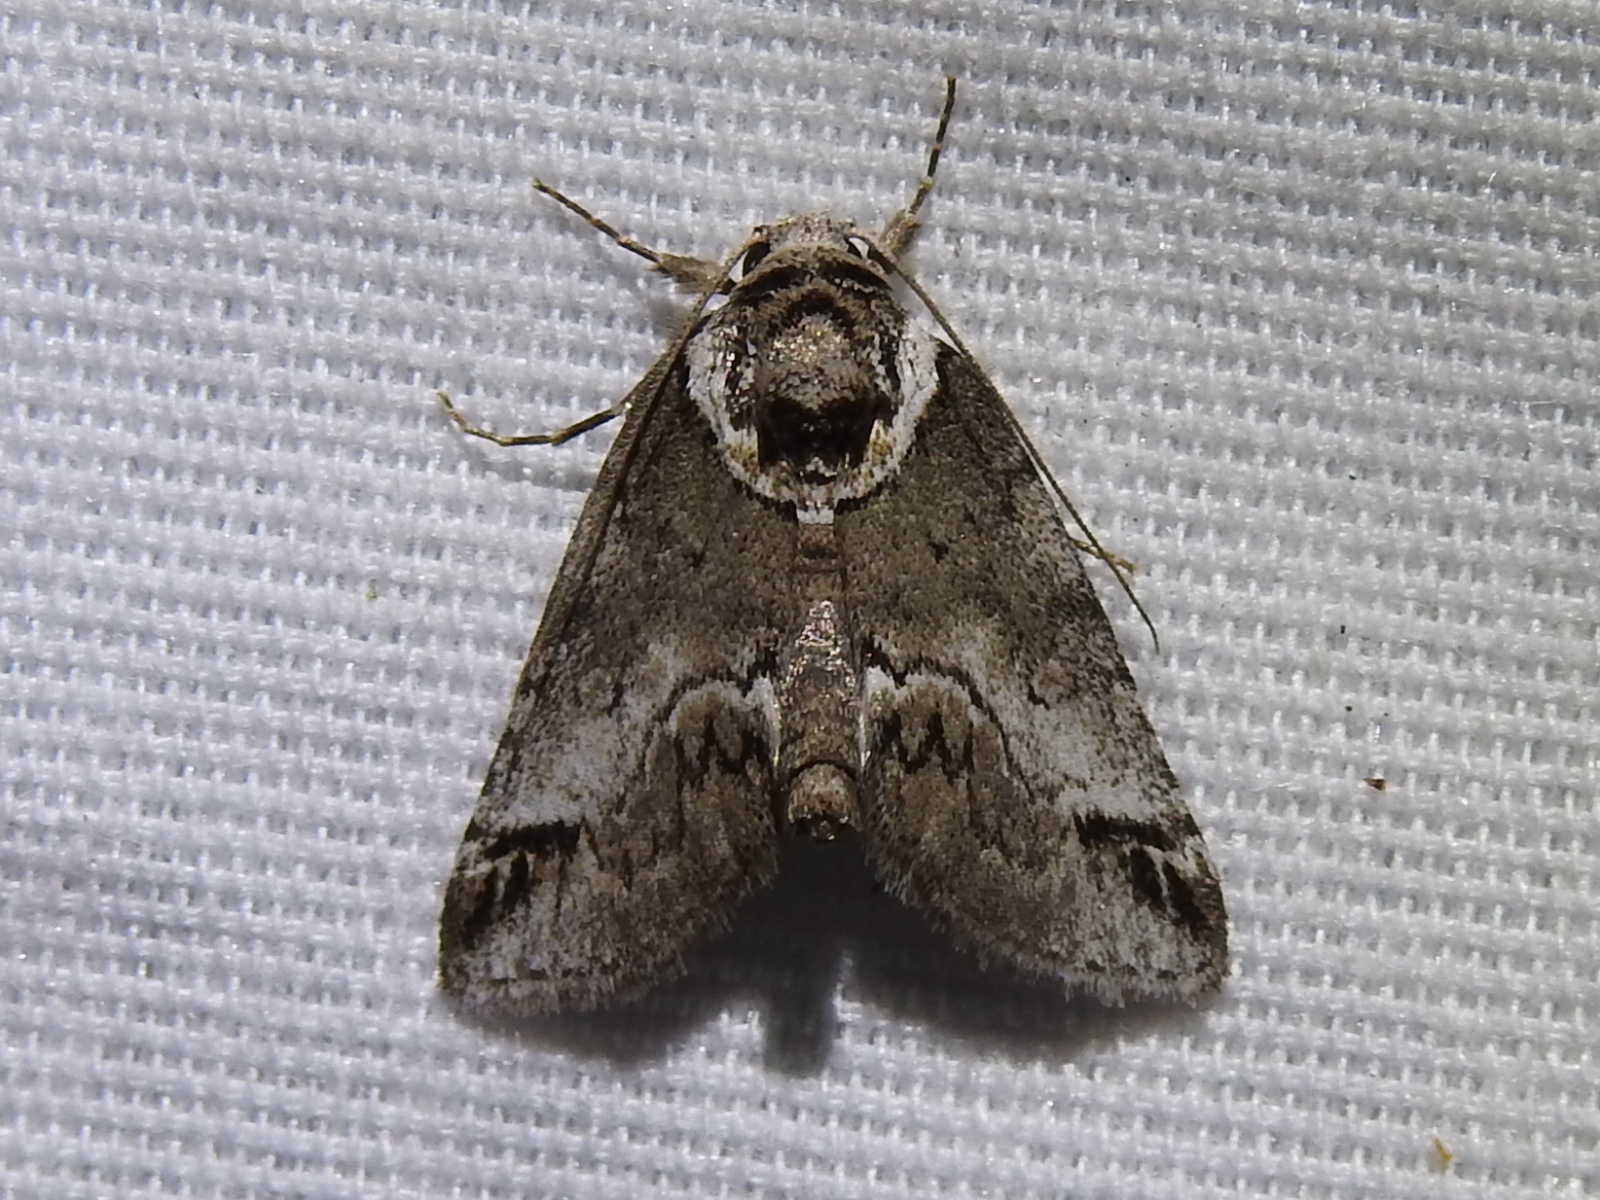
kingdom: Animalia
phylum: Arthropoda
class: Insecta
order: Lepidoptera
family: Nolidae
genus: Baileya
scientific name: Baileya australis
